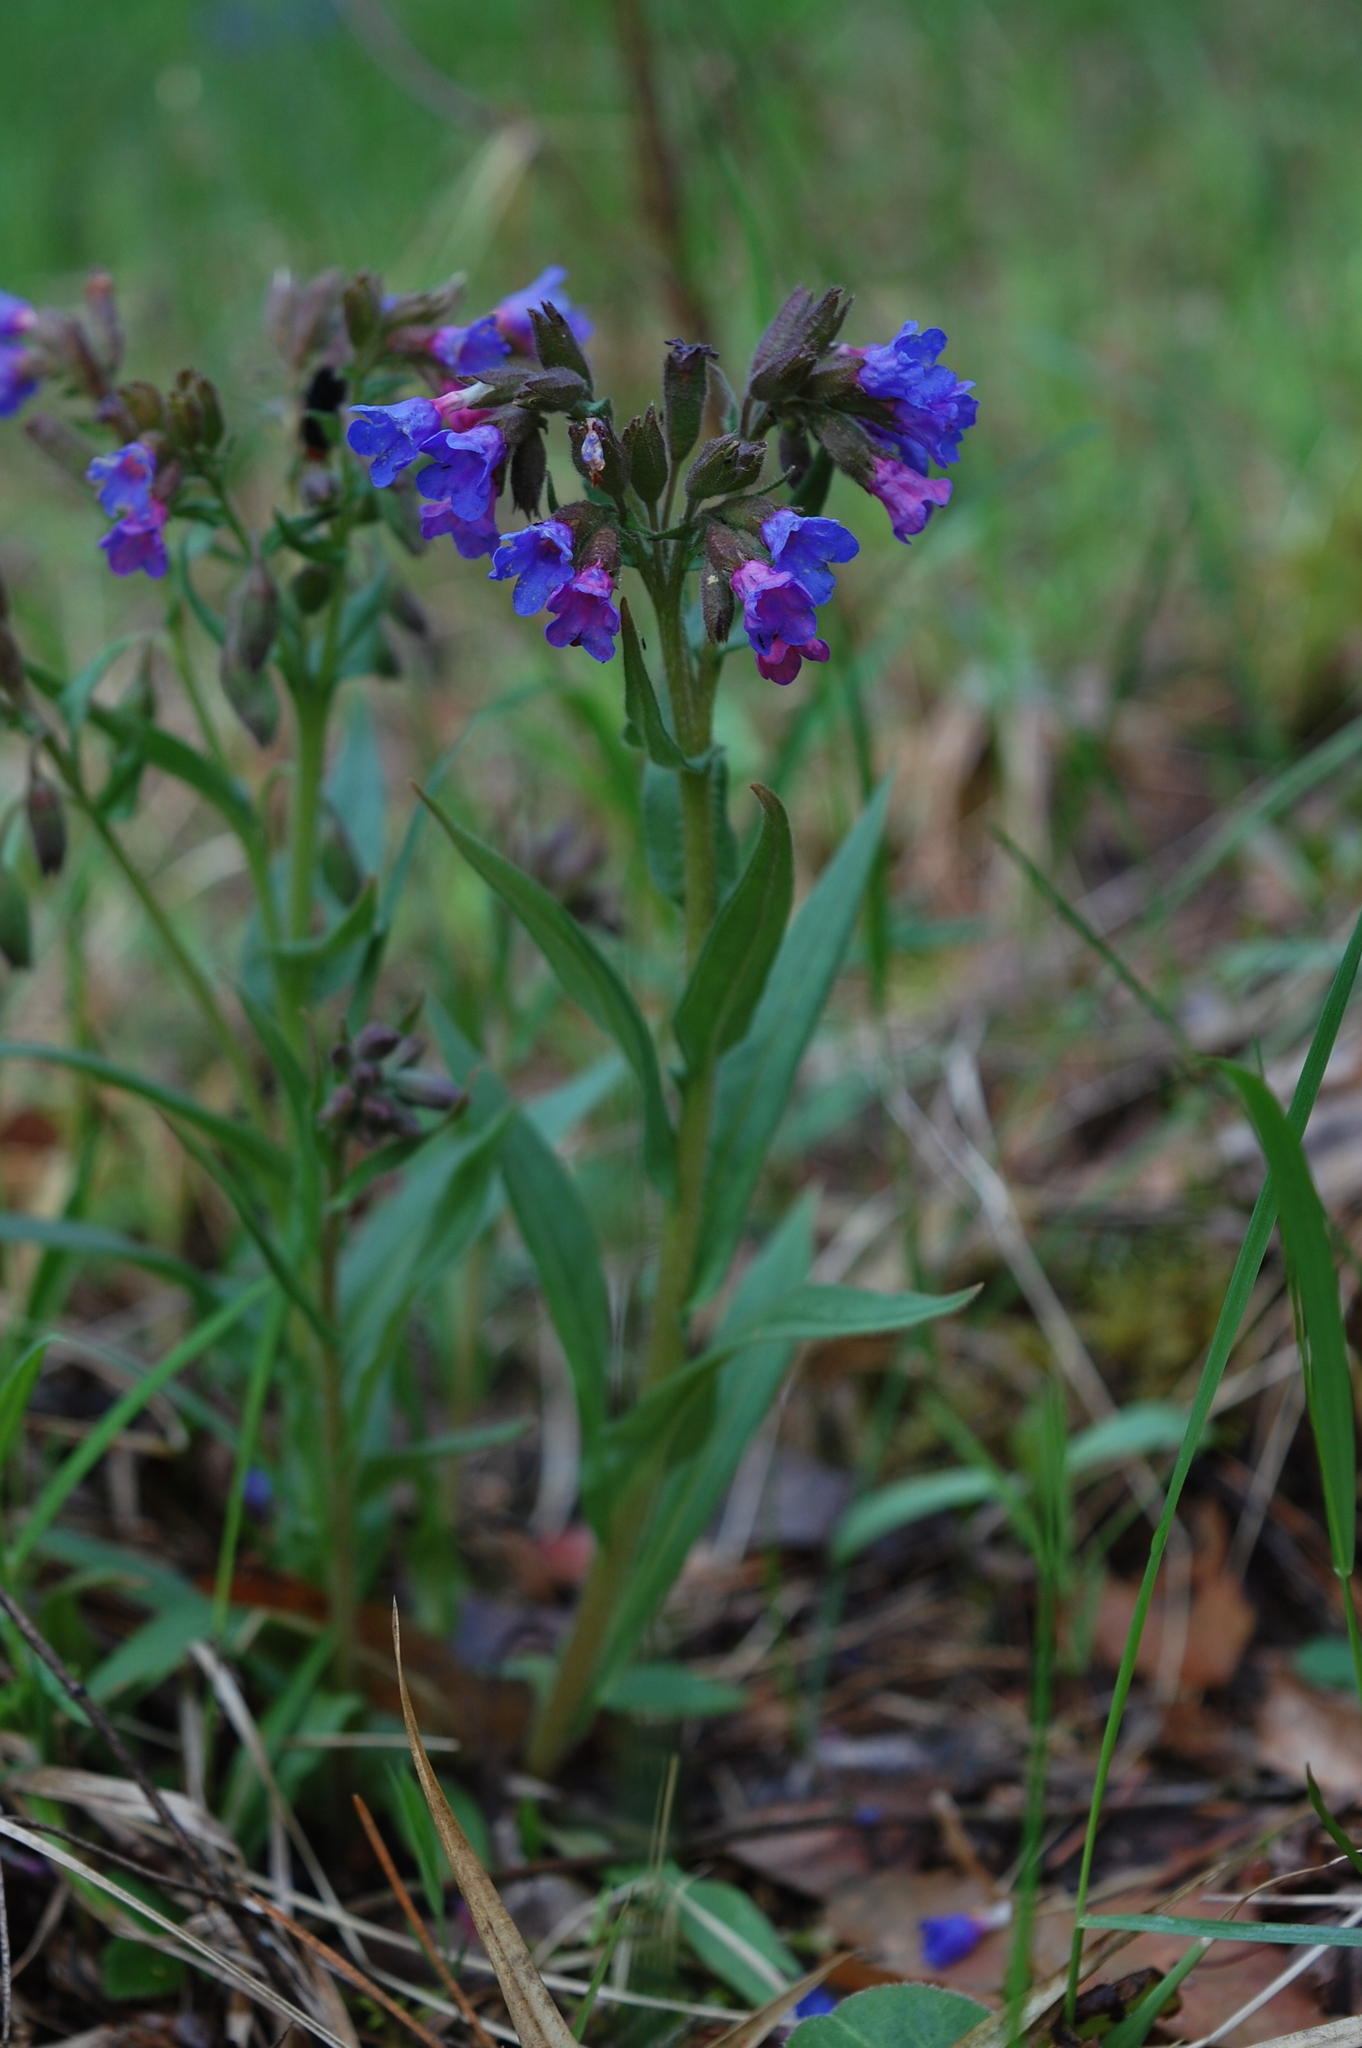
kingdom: Plantae
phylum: Tracheophyta
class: Magnoliopsida
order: Boraginales
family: Boraginaceae
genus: Pulmonaria
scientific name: Pulmonaria angustifolia
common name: Blue cowslip
